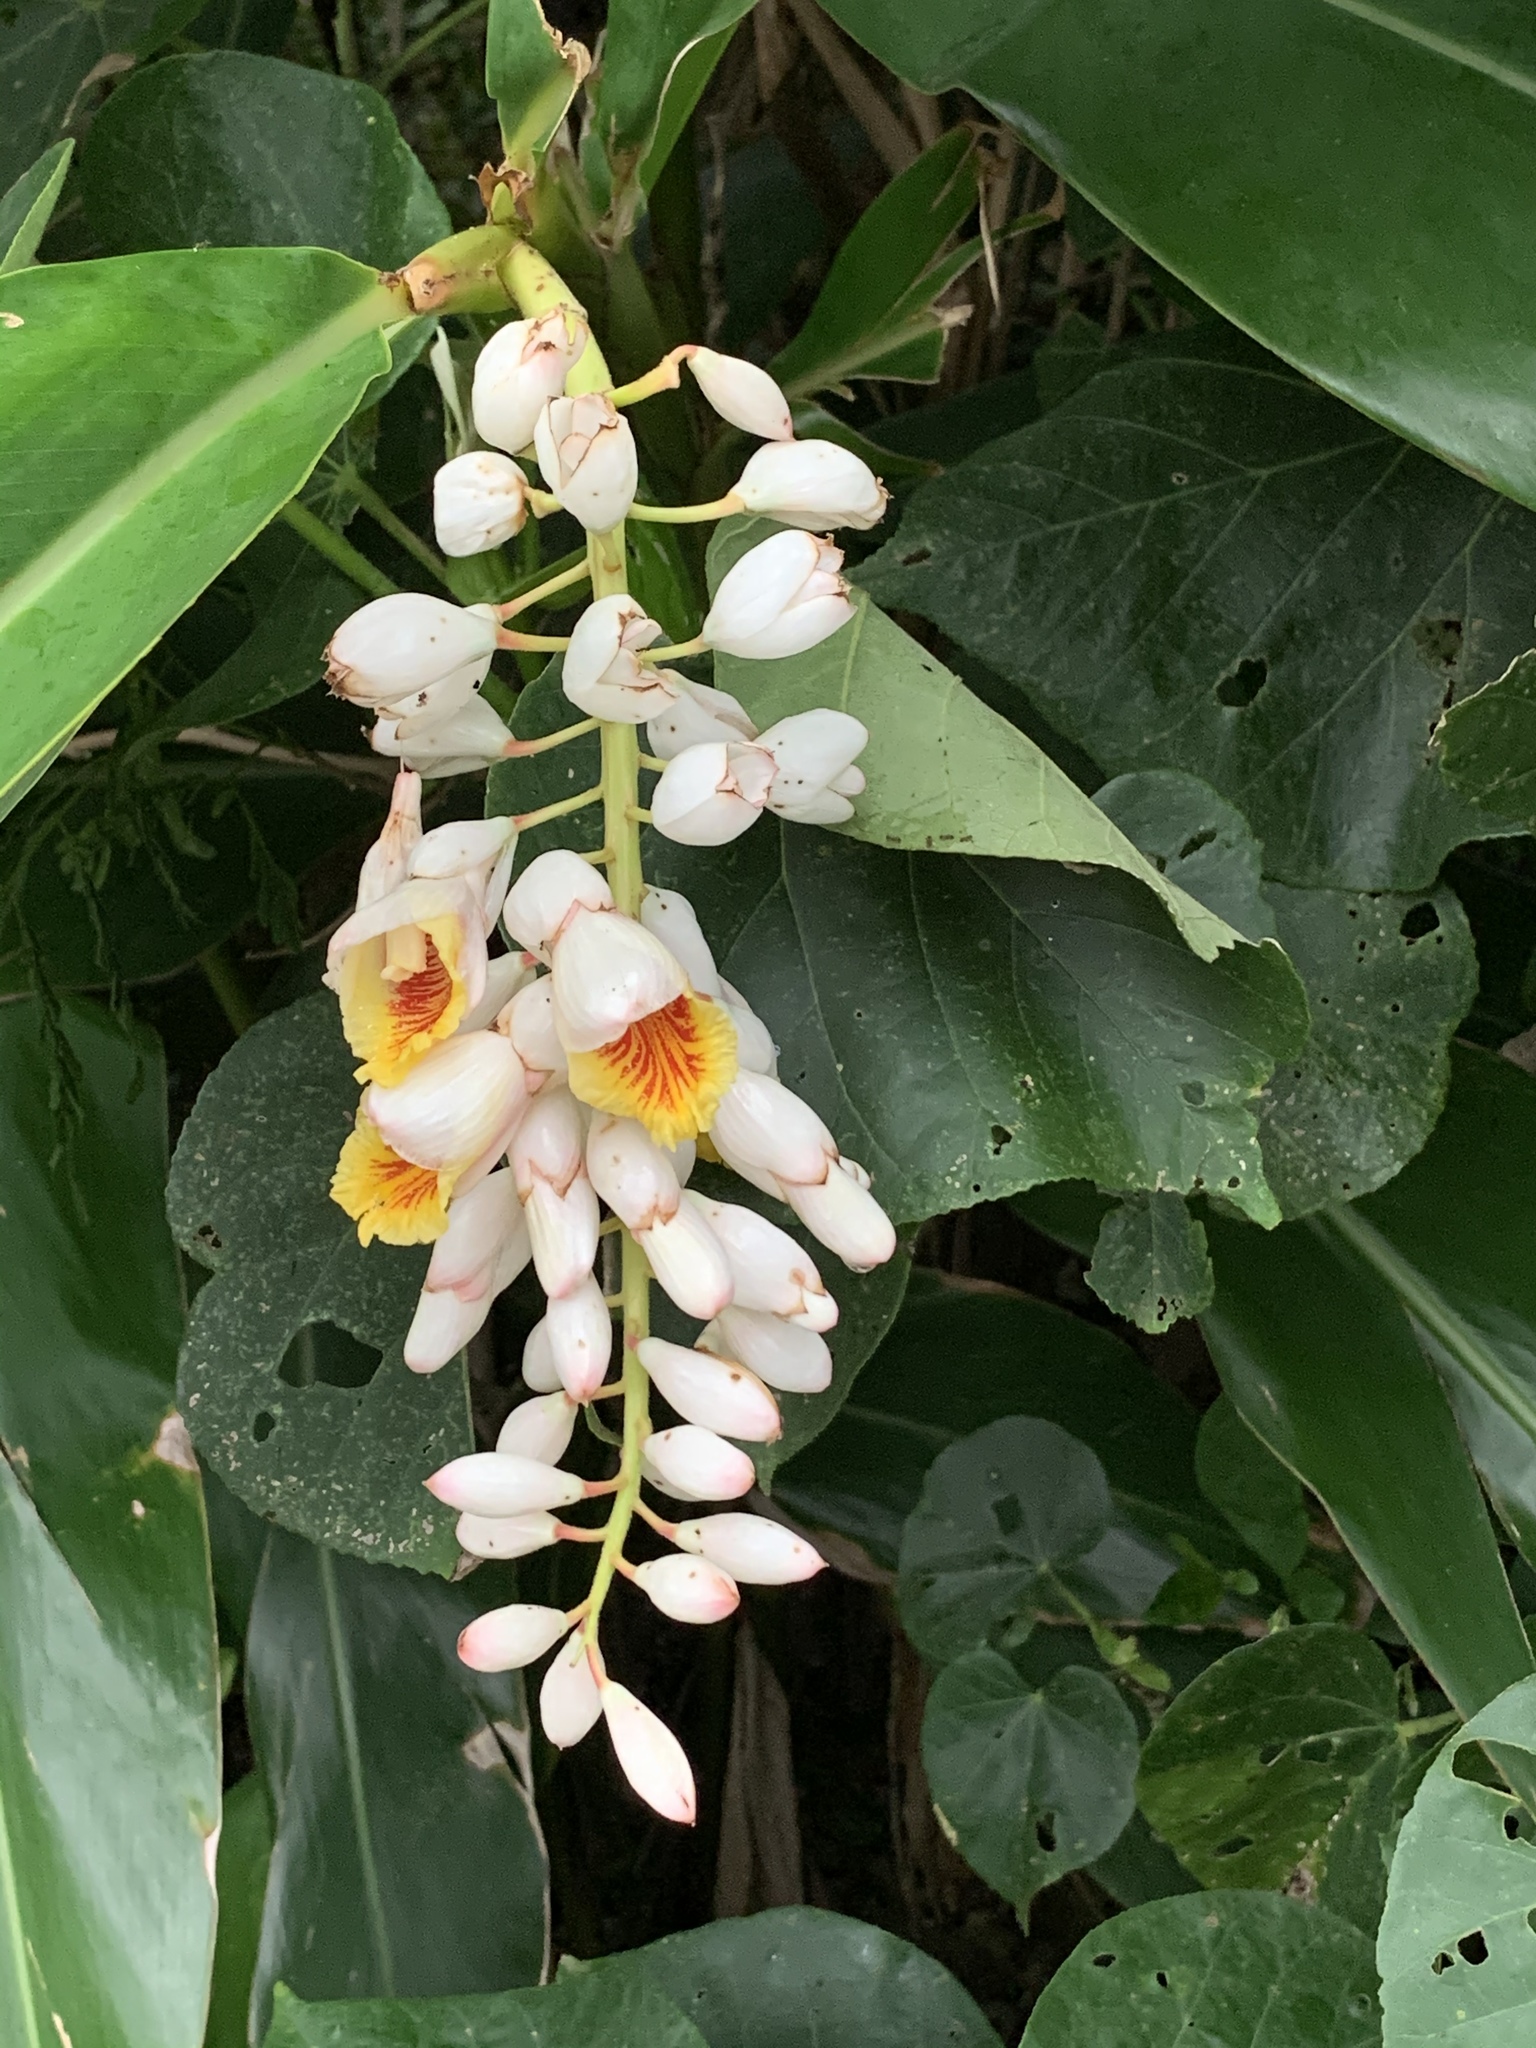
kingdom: Plantae
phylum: Tracheophyta
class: Liliopsida
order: Zingiberales
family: Zingiberaceae
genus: Alpinia
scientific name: Alpinia zerumbet
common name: Shellplant
